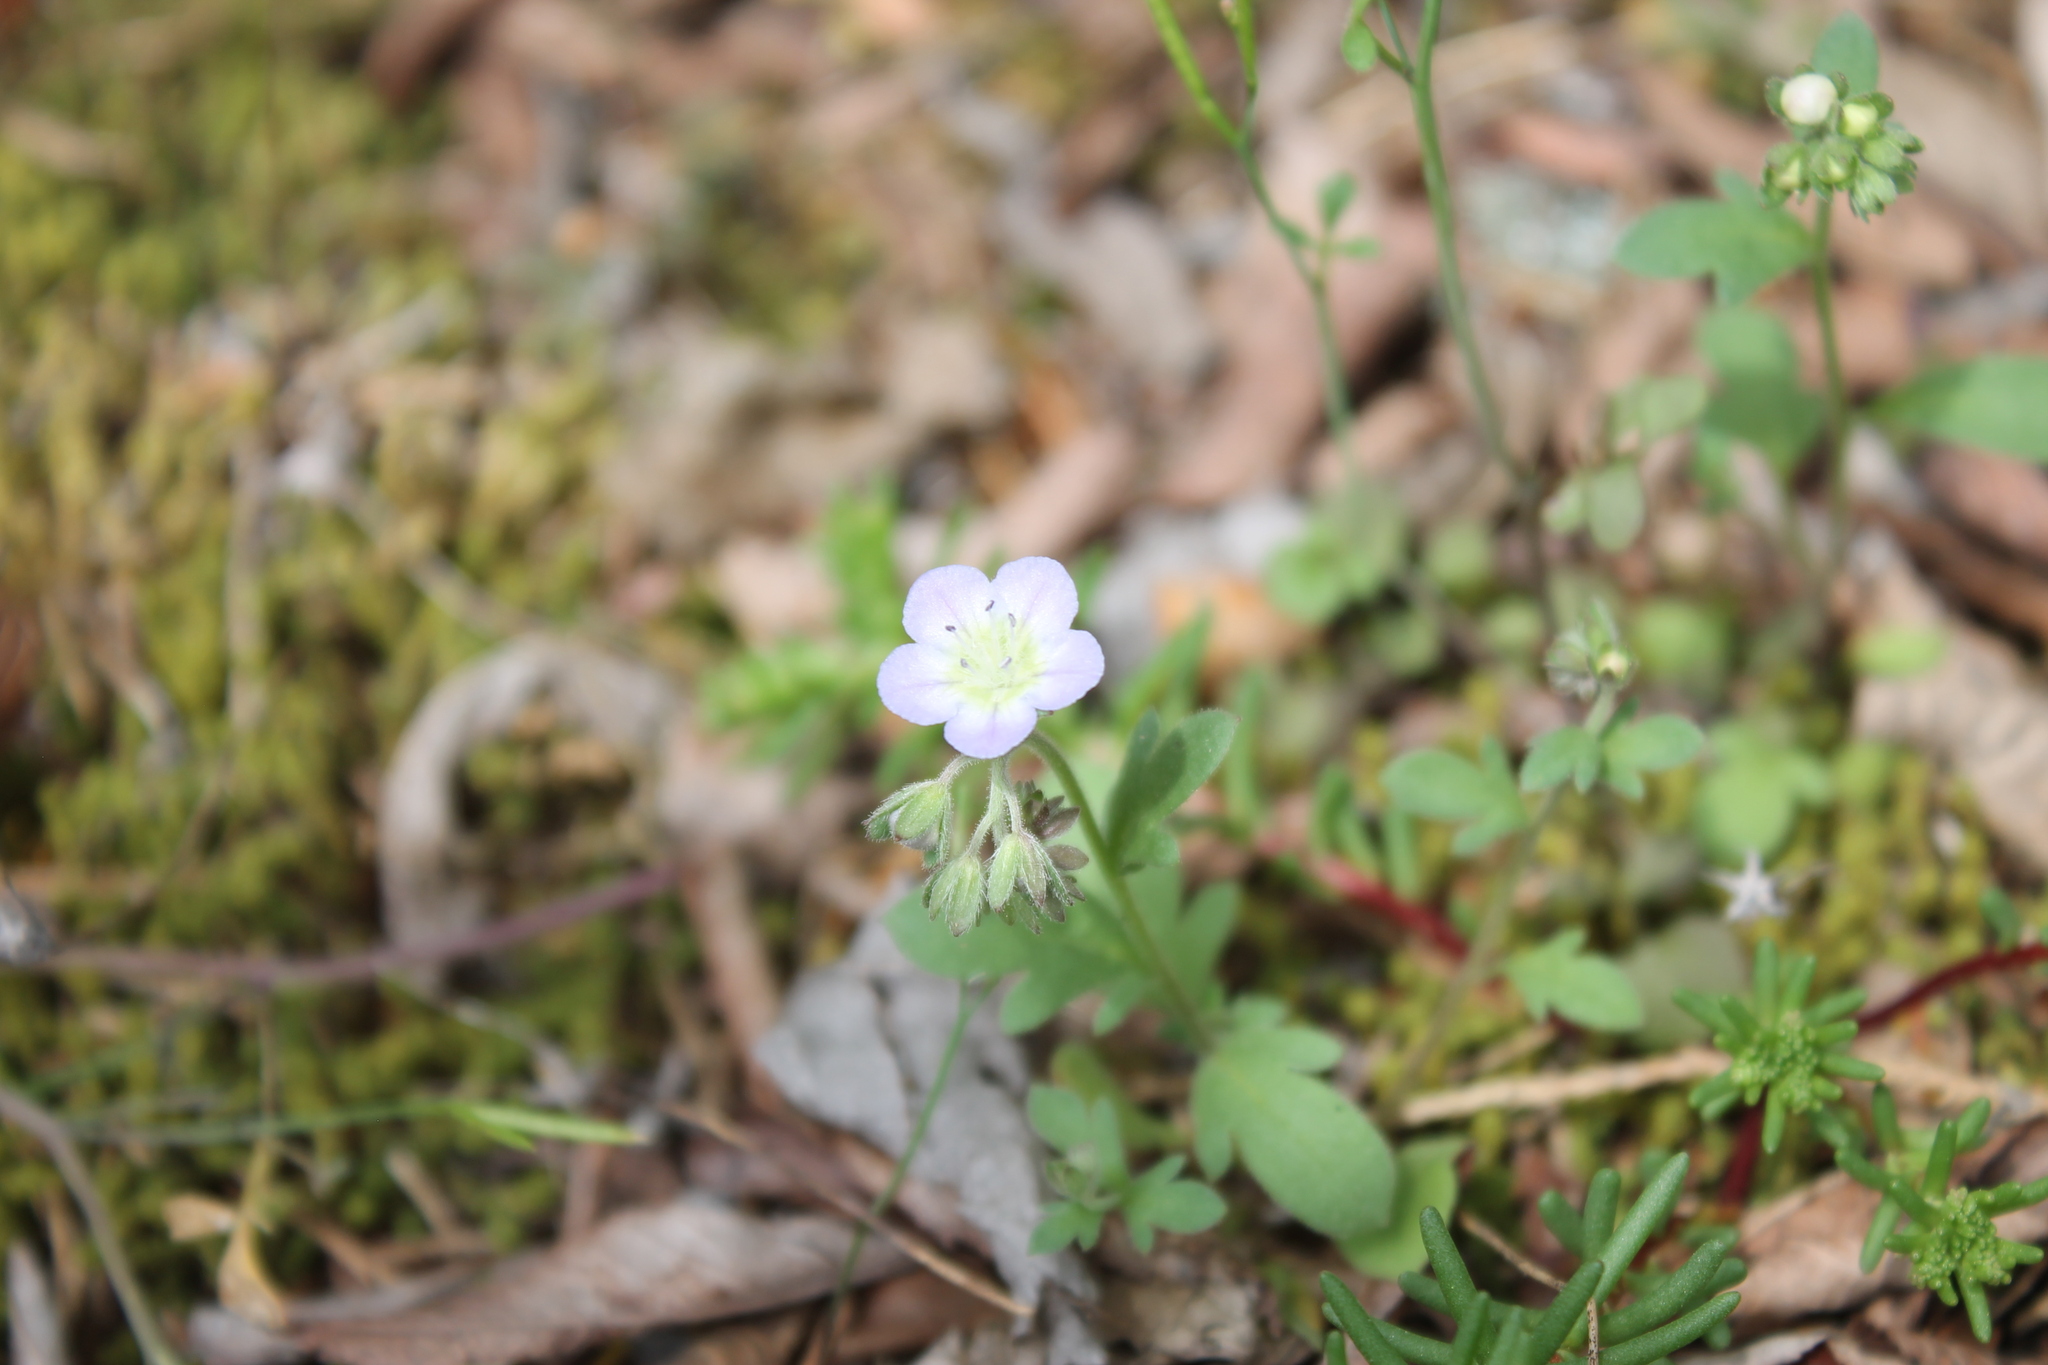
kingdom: Plantae
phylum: Tracheophyta
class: Magnoliopsida
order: Boraginales
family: Hydrophyllaceae
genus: Phacelia
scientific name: Phacelia dubia
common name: Appalachian phacelia
